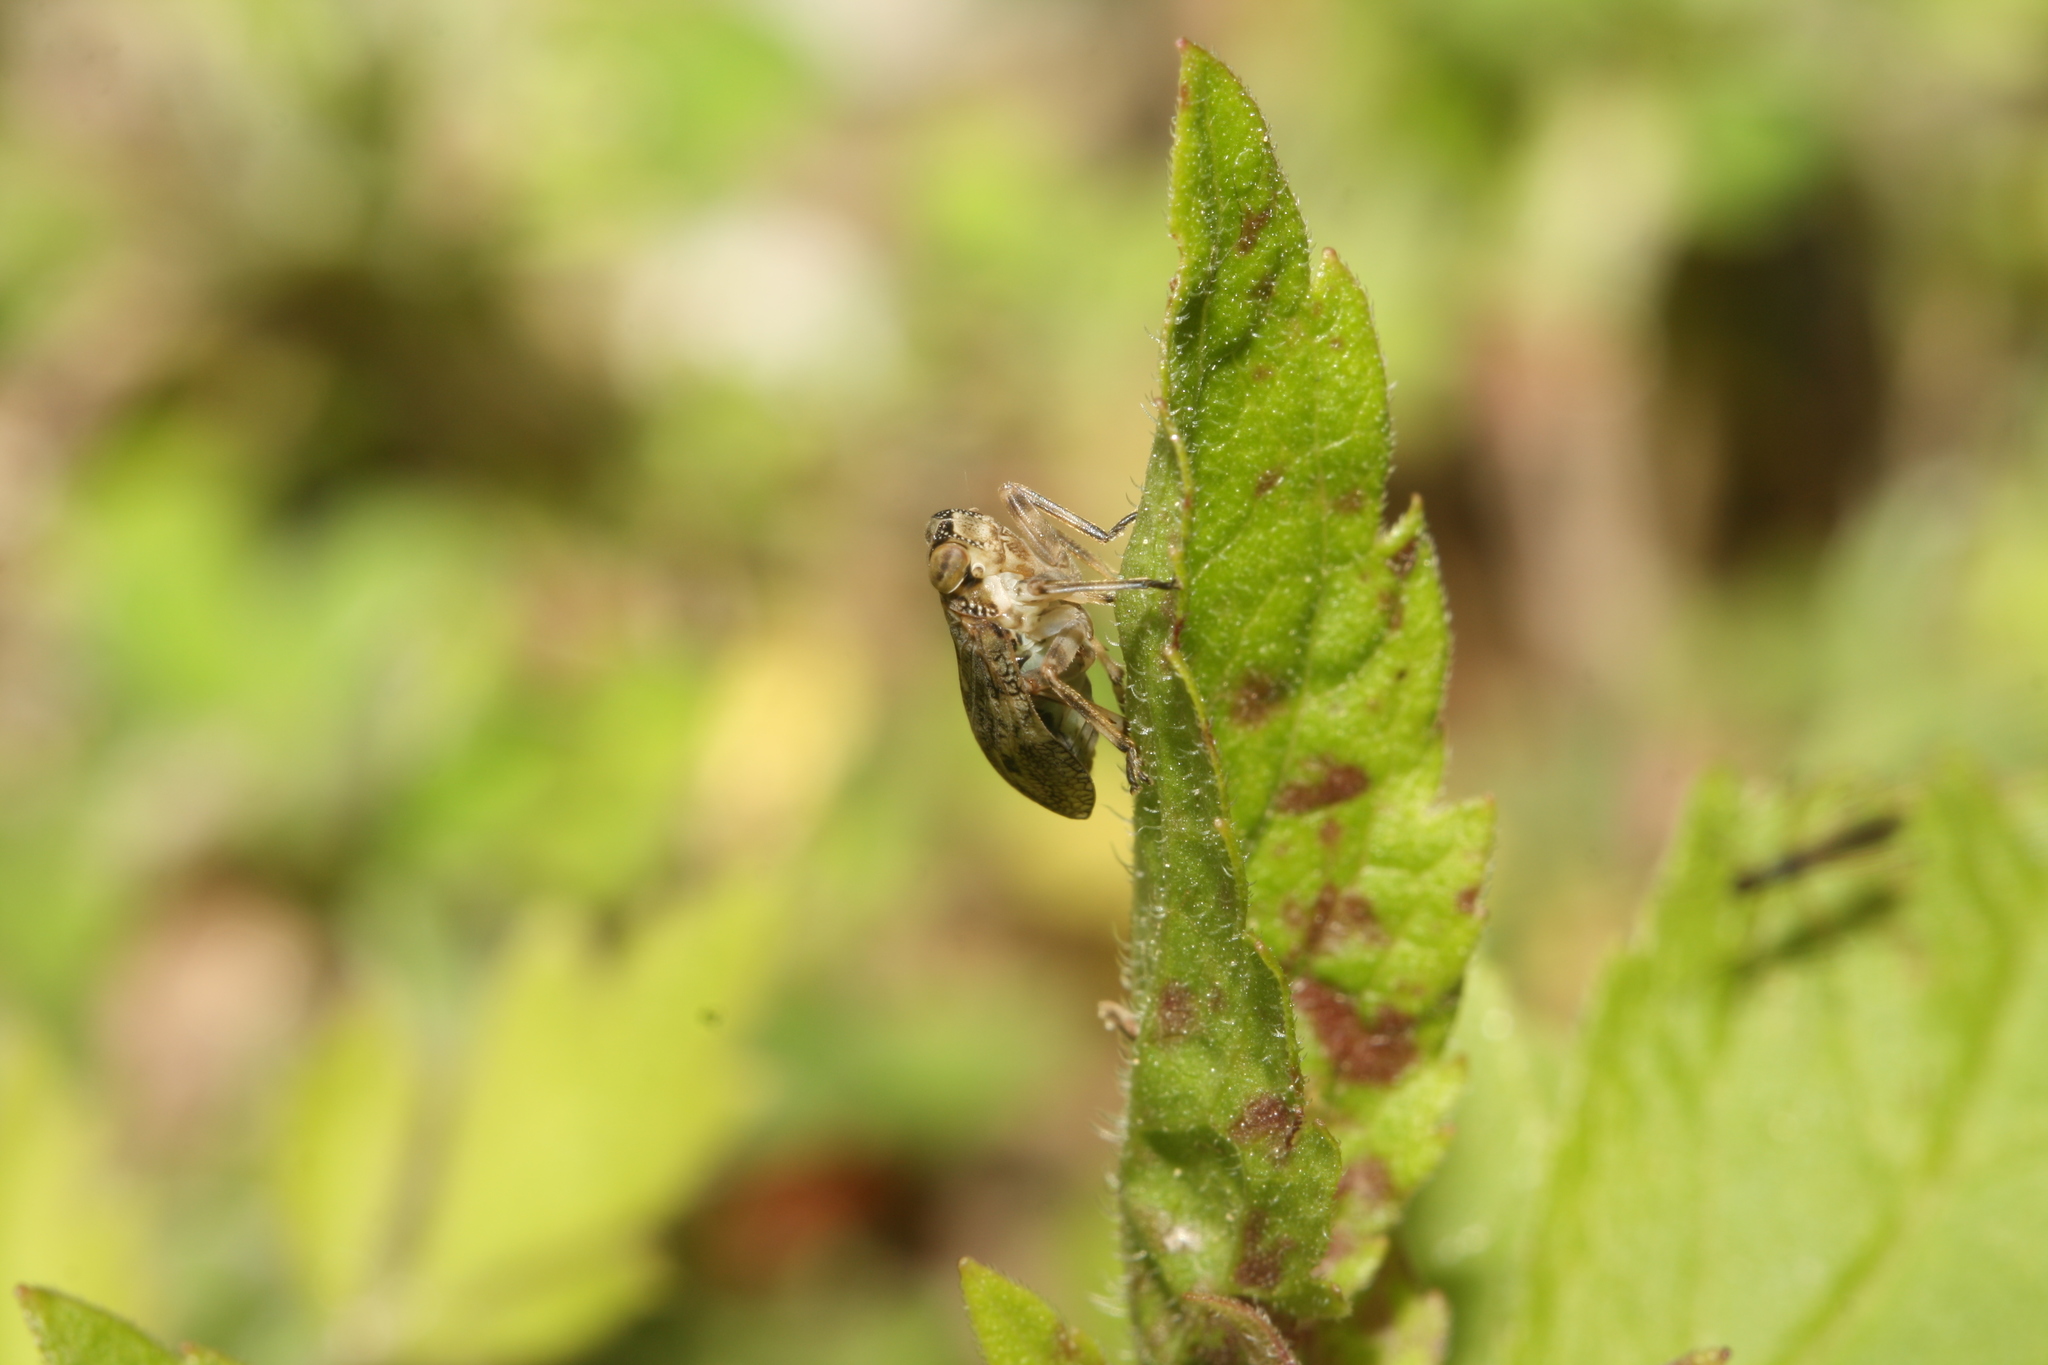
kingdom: Animalia
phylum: Arthropoda
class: Insecta
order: Hemiptera
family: Issidae
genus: Issus
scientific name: Issus coleoptratus
